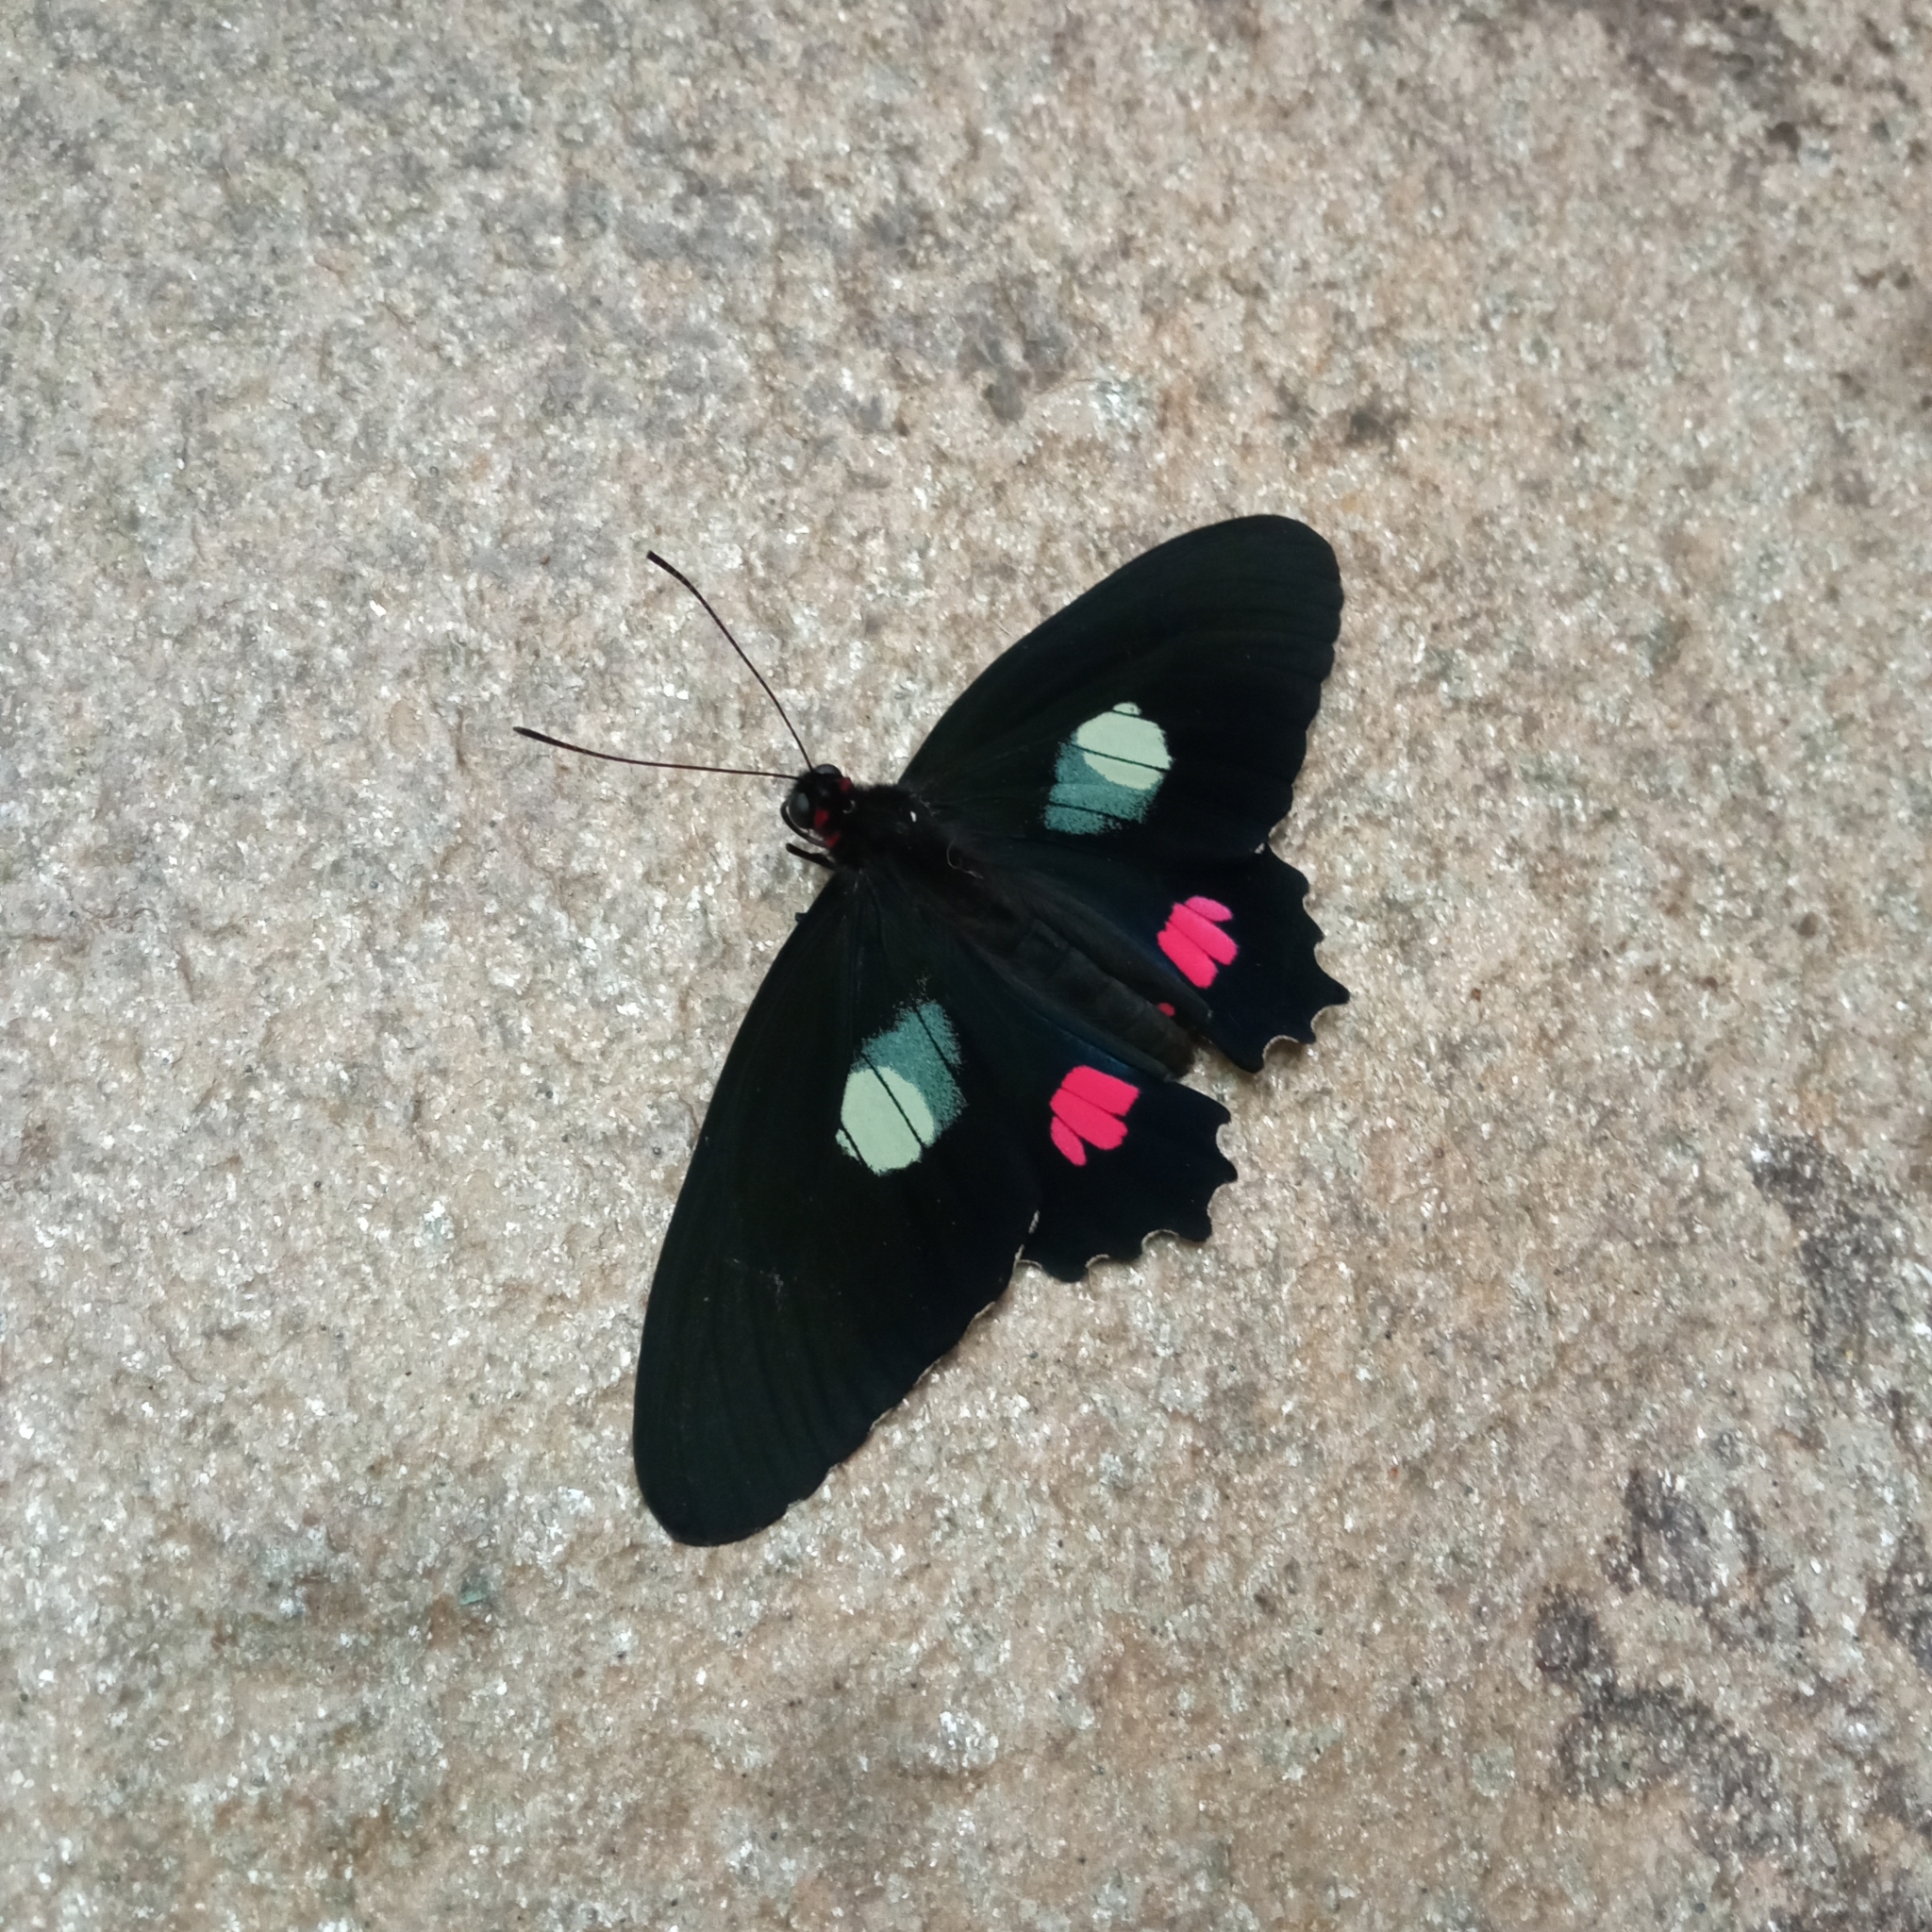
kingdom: Animalia
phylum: Arthropoda
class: Insecta
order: Lepidoptera
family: Papilionidae
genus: Parides
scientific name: Parides anchises
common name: Cattle heart
